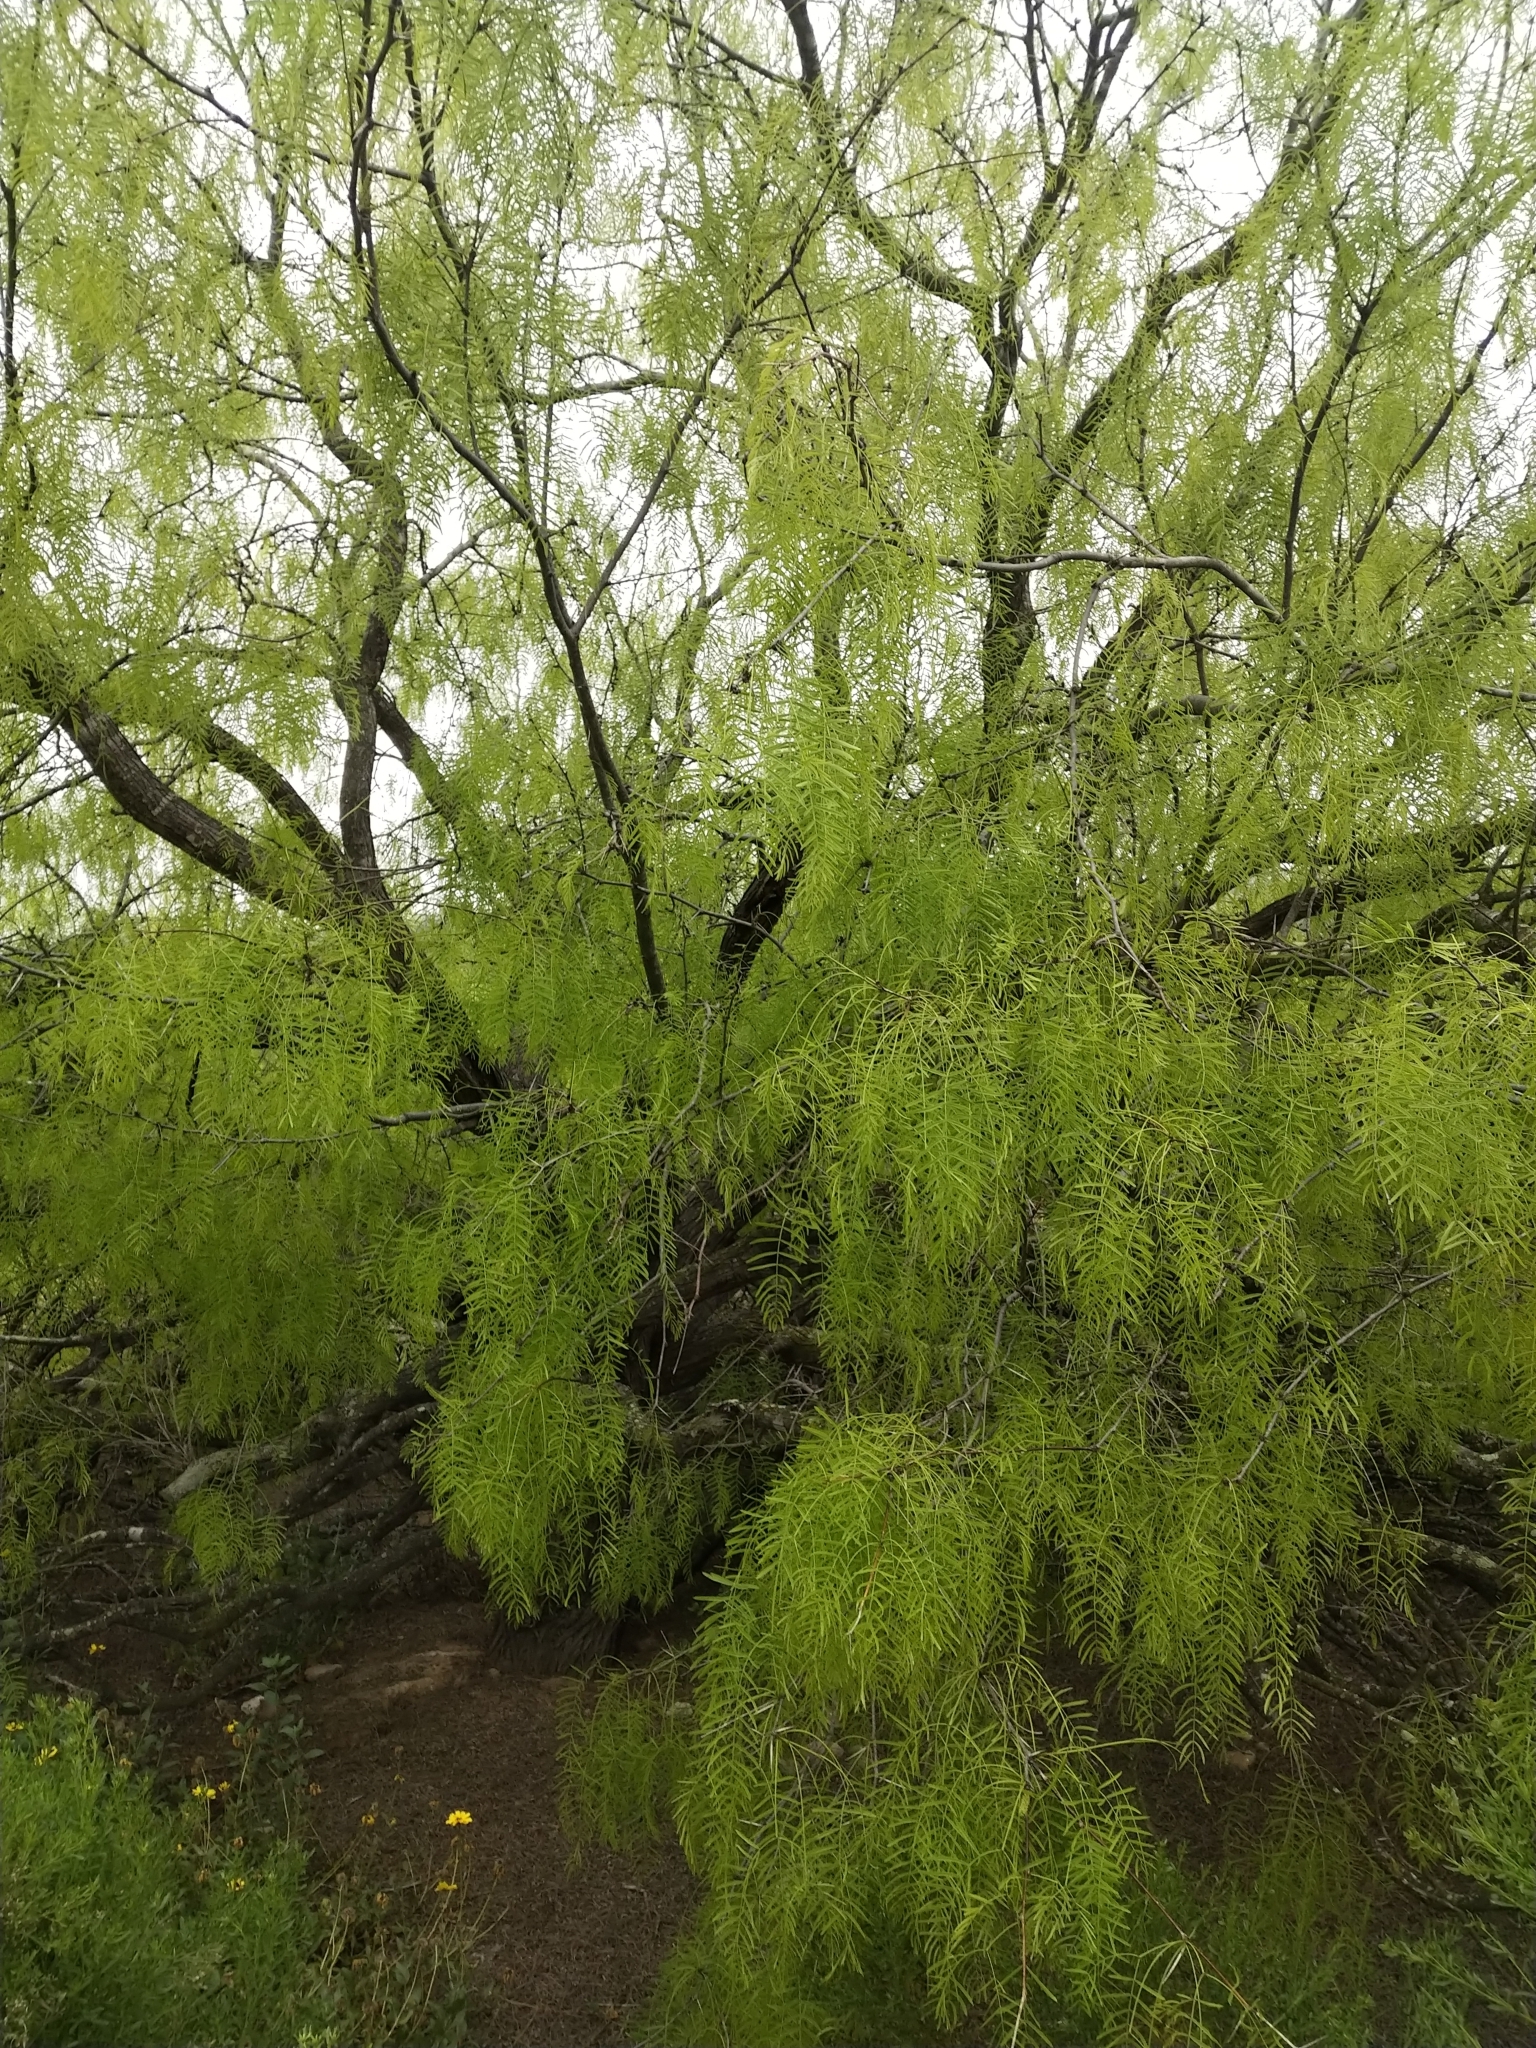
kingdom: Plantae
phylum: Tracheophyta
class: Magnoliopsida
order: Fabales
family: Fabaceae
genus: Prosopis
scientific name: Prosopis glandulosa
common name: Honey mesquite
